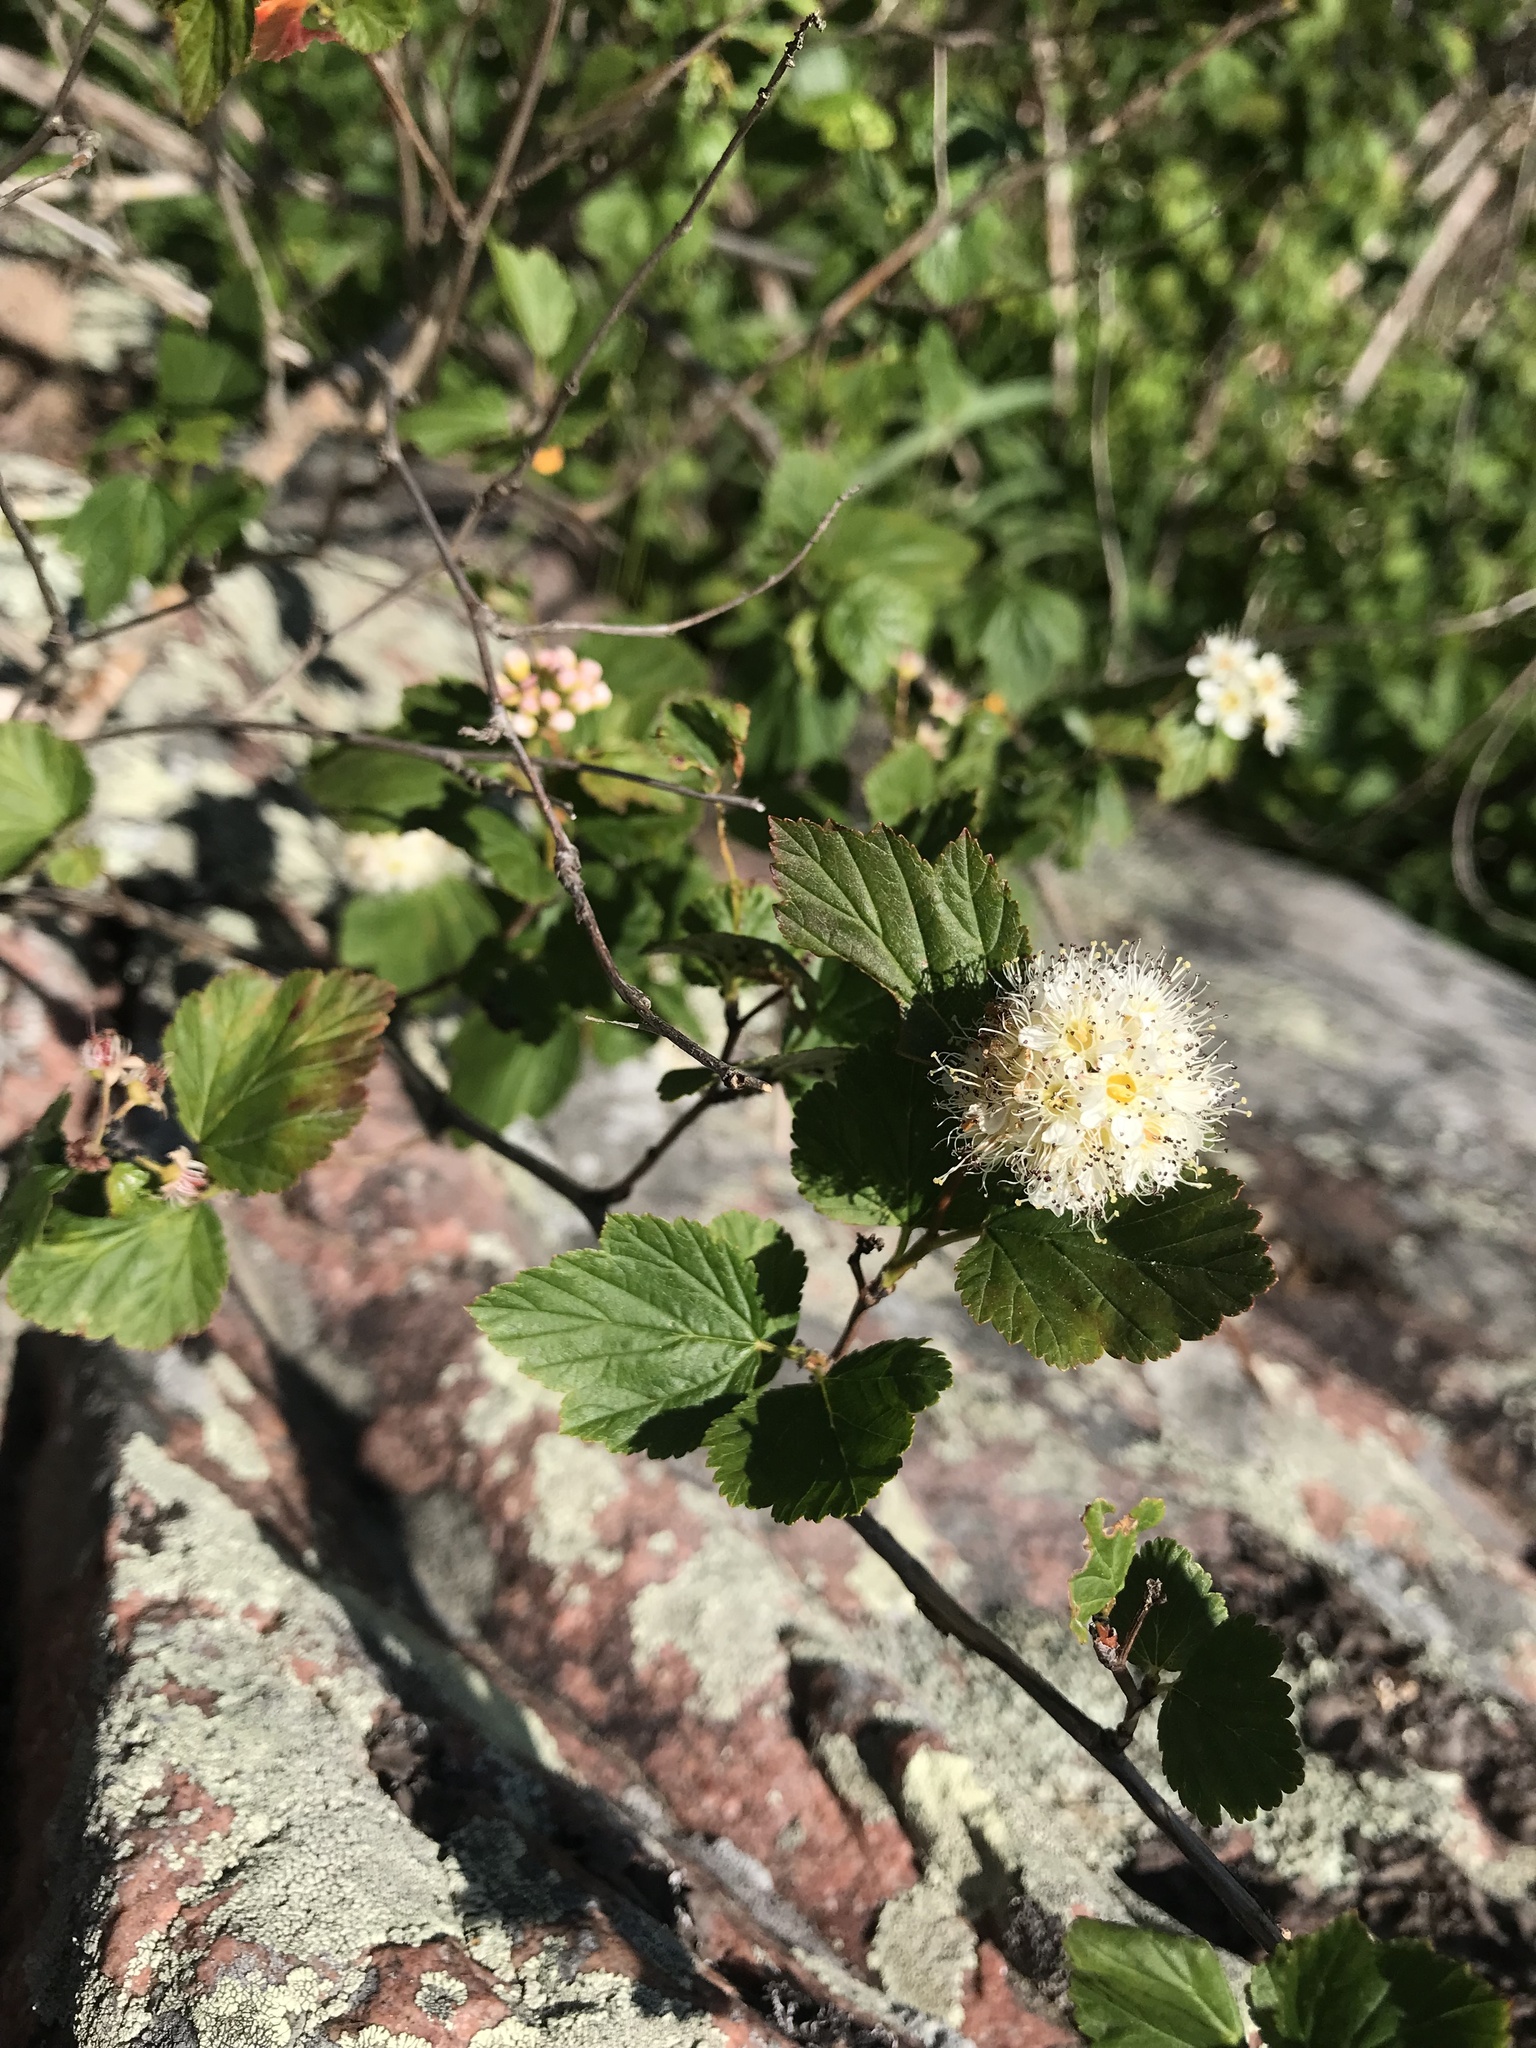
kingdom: Plantae
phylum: Tracheophyta
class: Magnoliopsida
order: Rosales
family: Rosaceae
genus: Physocarpus
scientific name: Physocarpus opulifolius
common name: Ninebark
